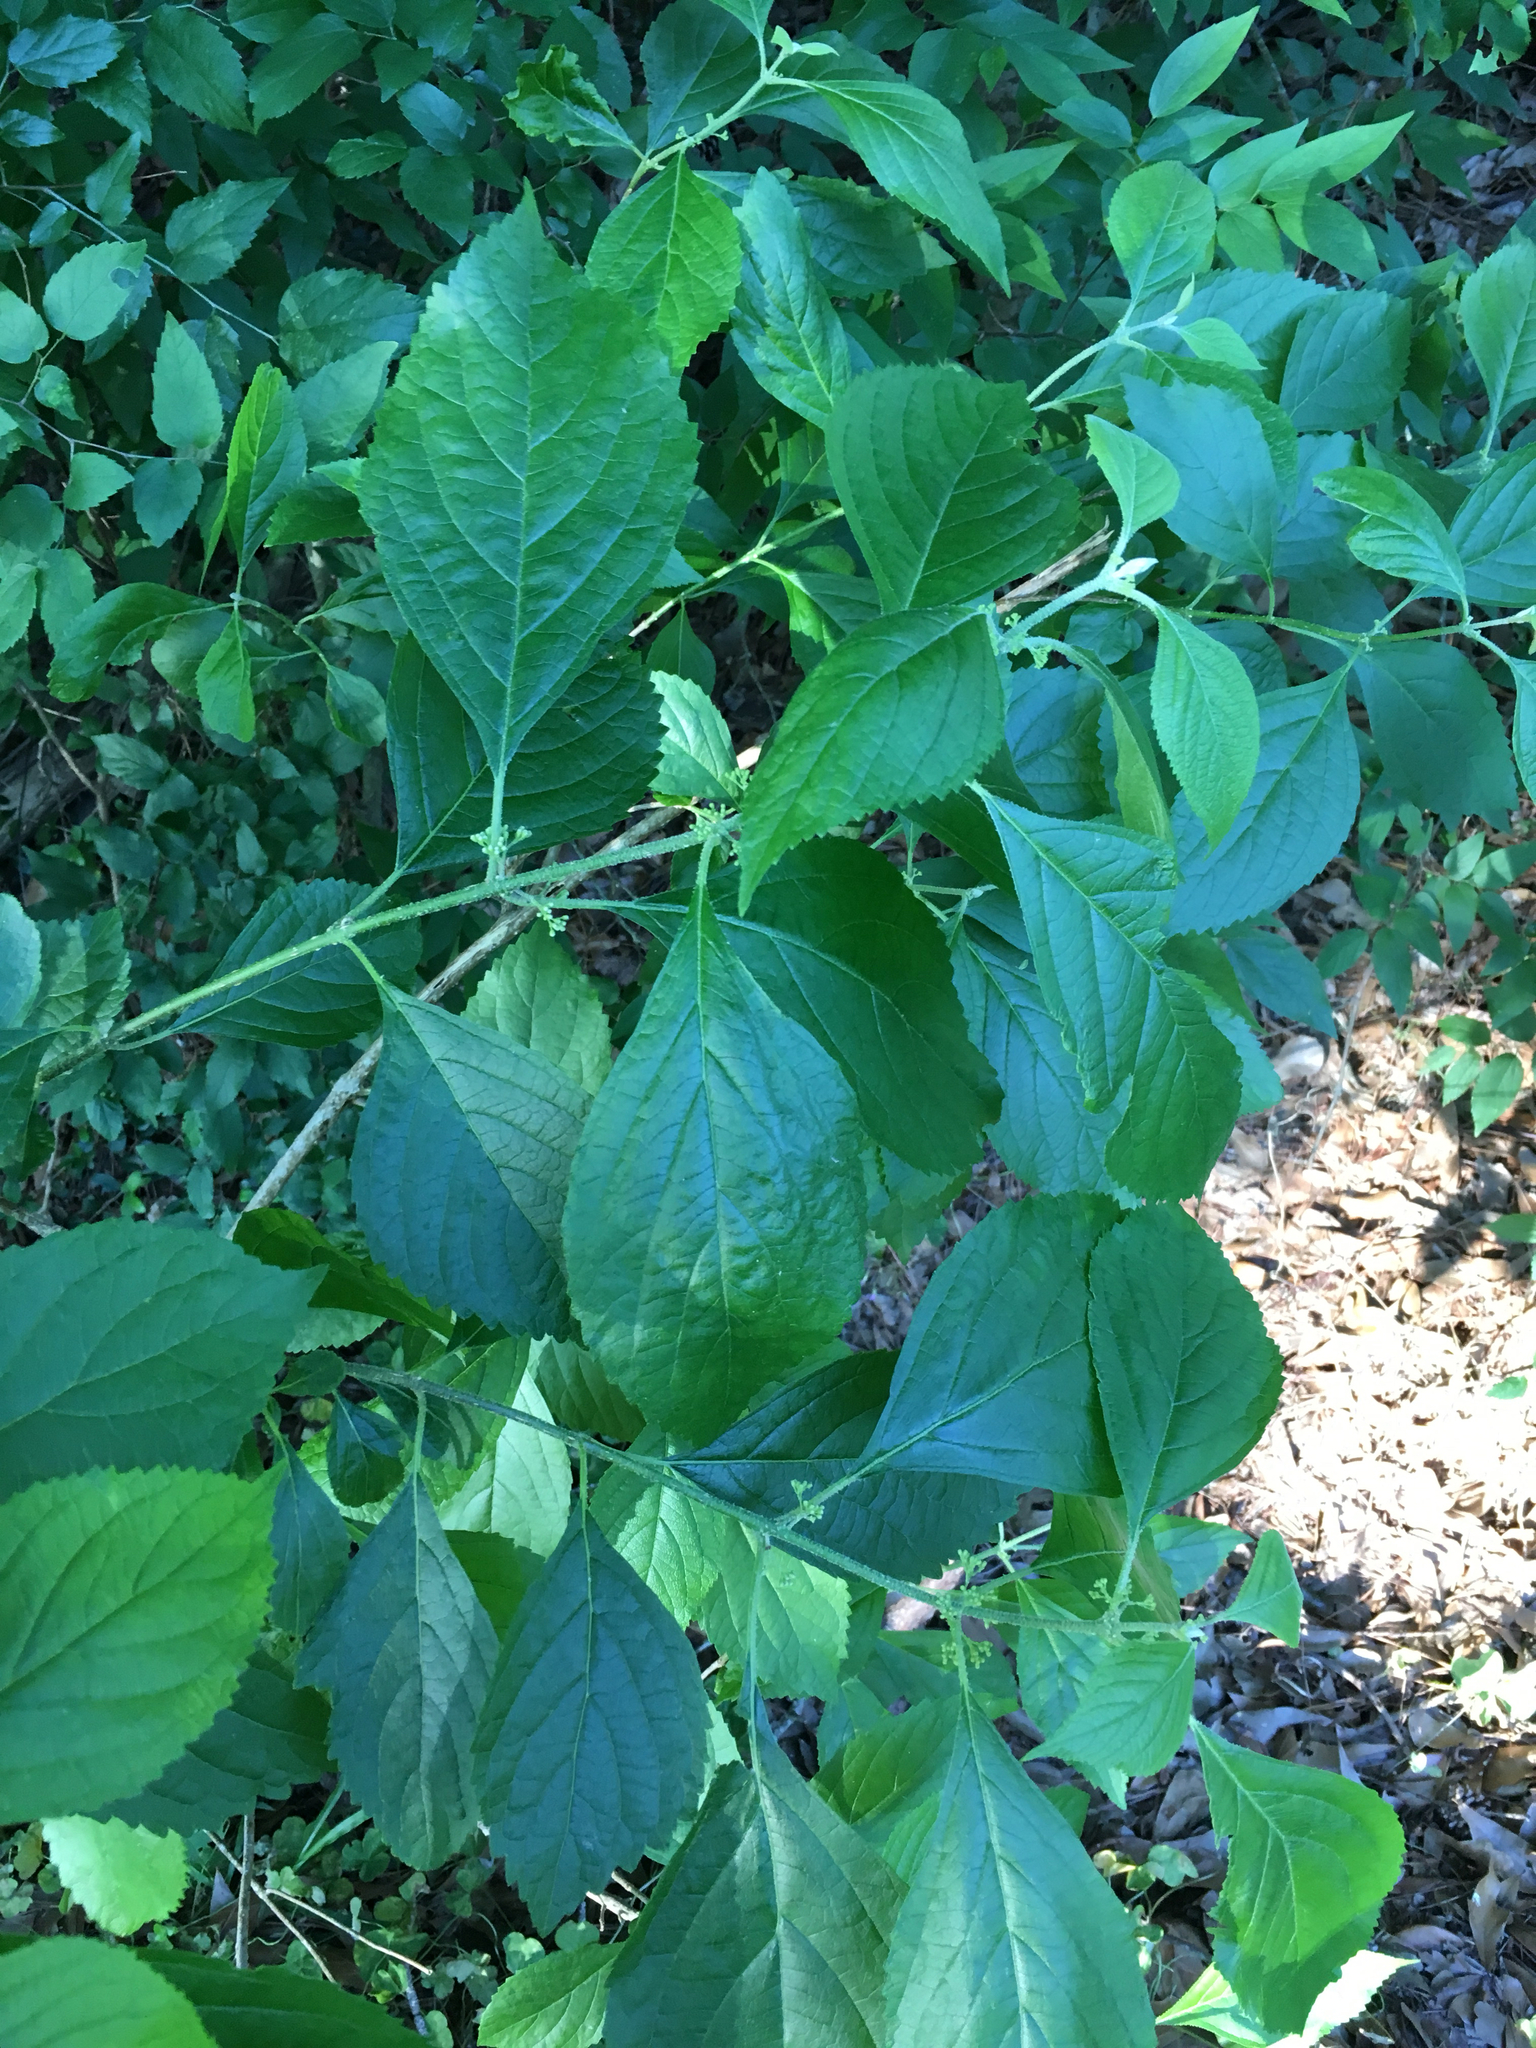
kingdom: Plantae
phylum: Tracheophyta
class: Magnoliopsida
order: Lamiales
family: Lamiaceae
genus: Callicarpa
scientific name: Callicarpa americana
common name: American beautyberry
